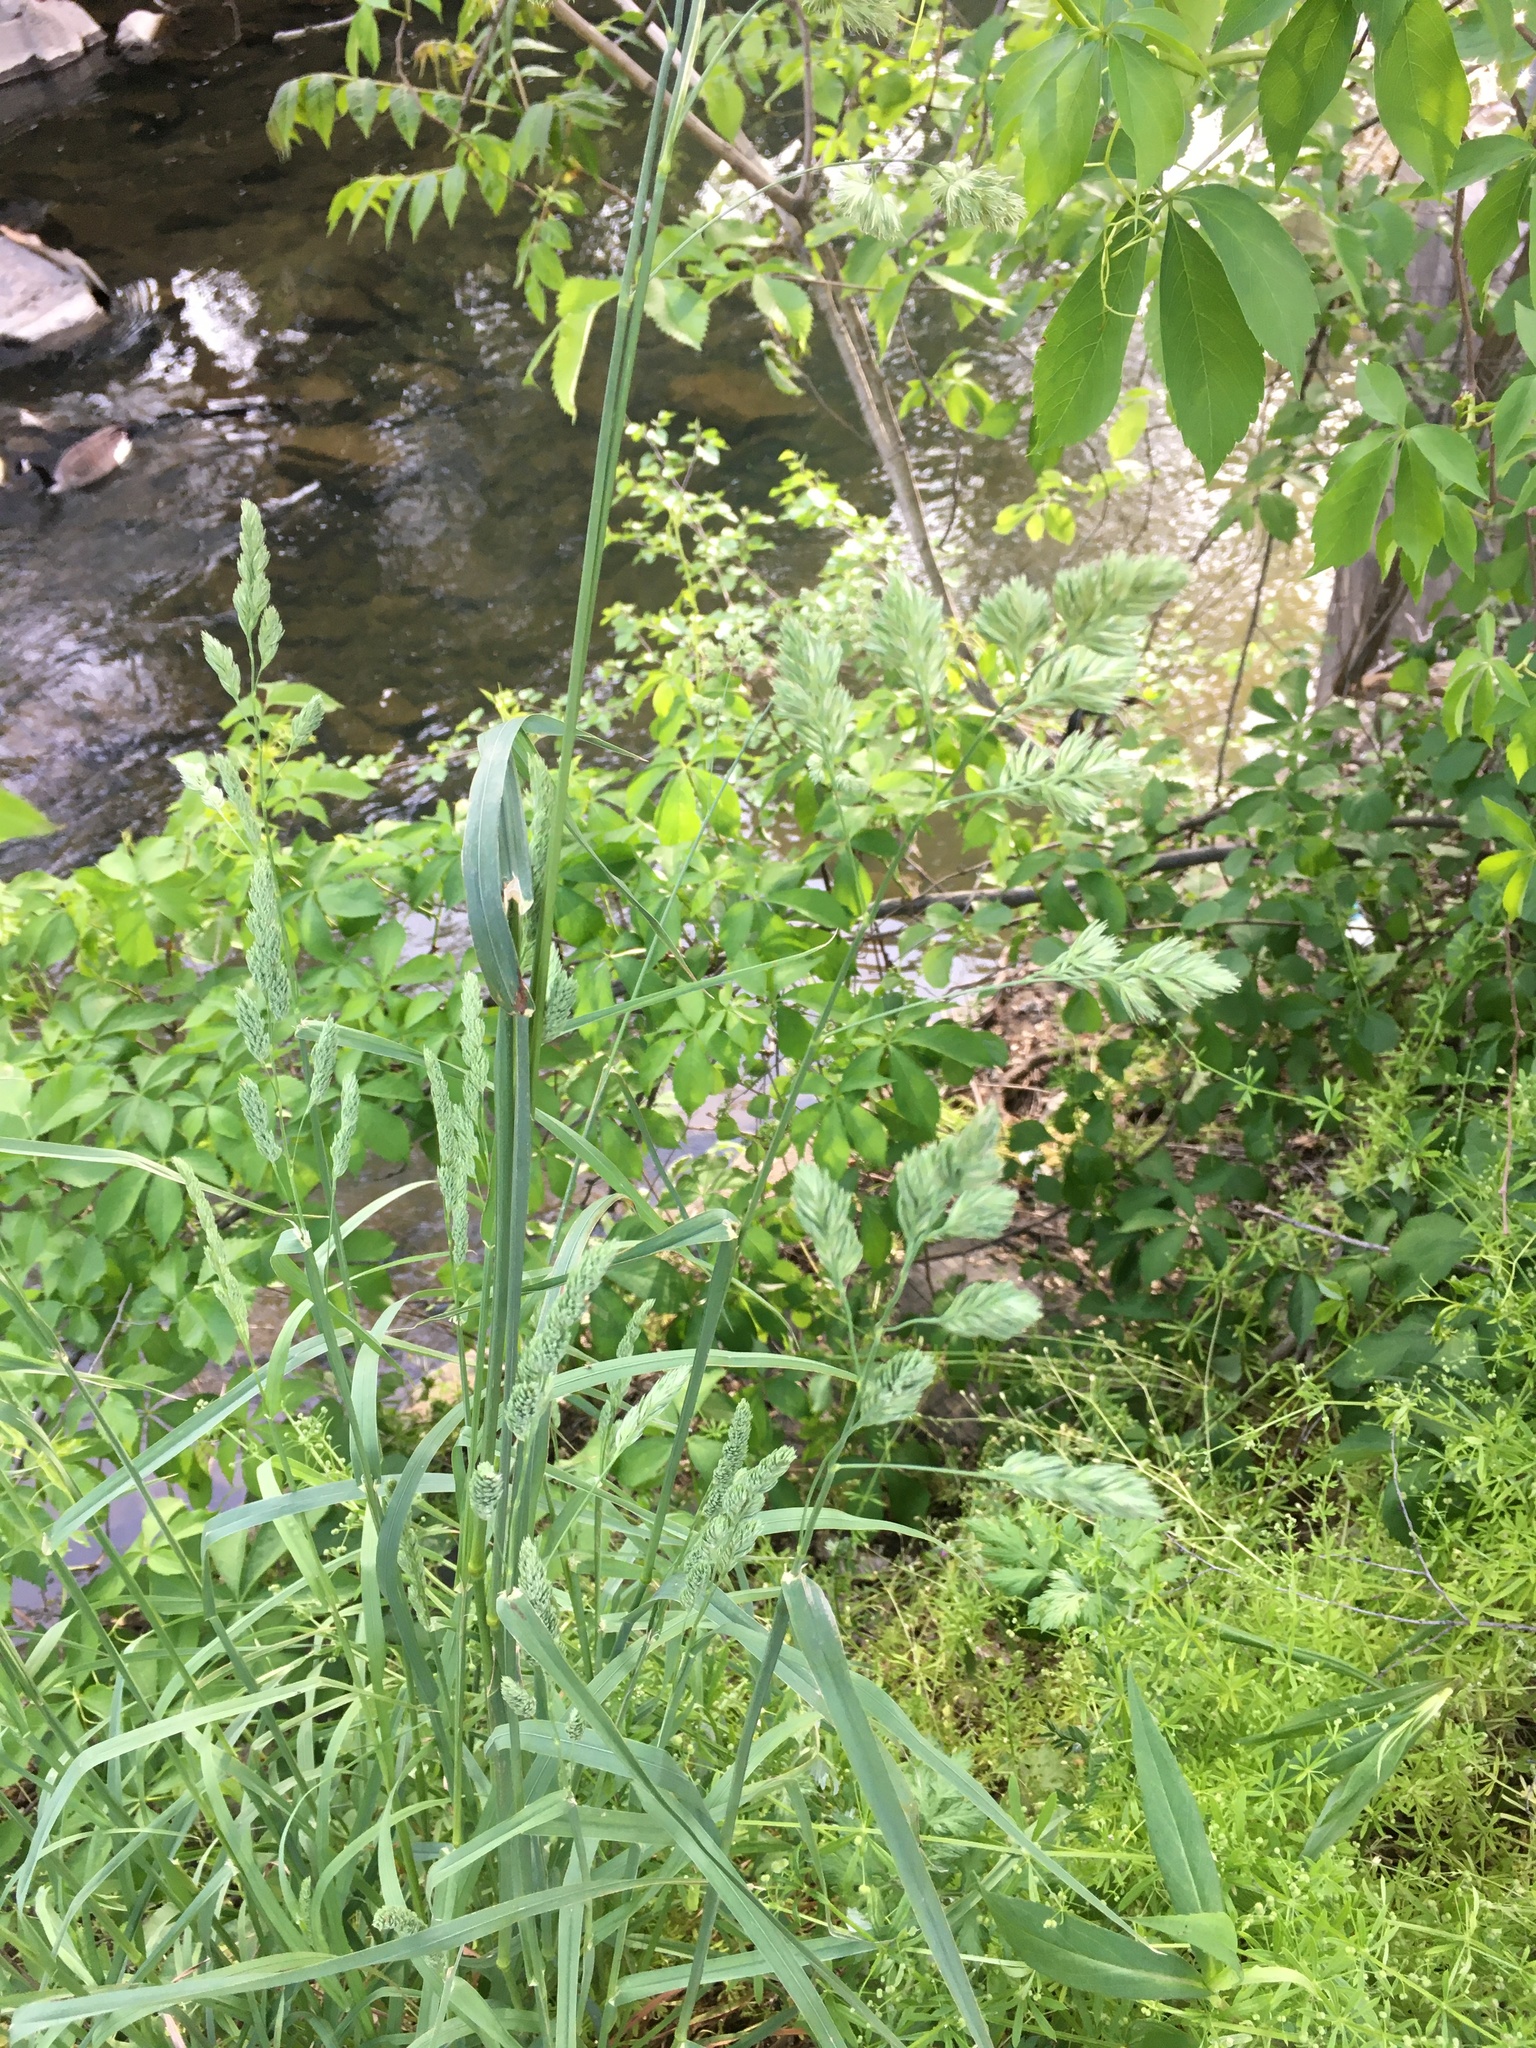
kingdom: Plantae
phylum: Tracheophyta
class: Liliopsida
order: Poales
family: Poaceae
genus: Dactylis
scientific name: Dactylis glomerata
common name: Orchardgrass
